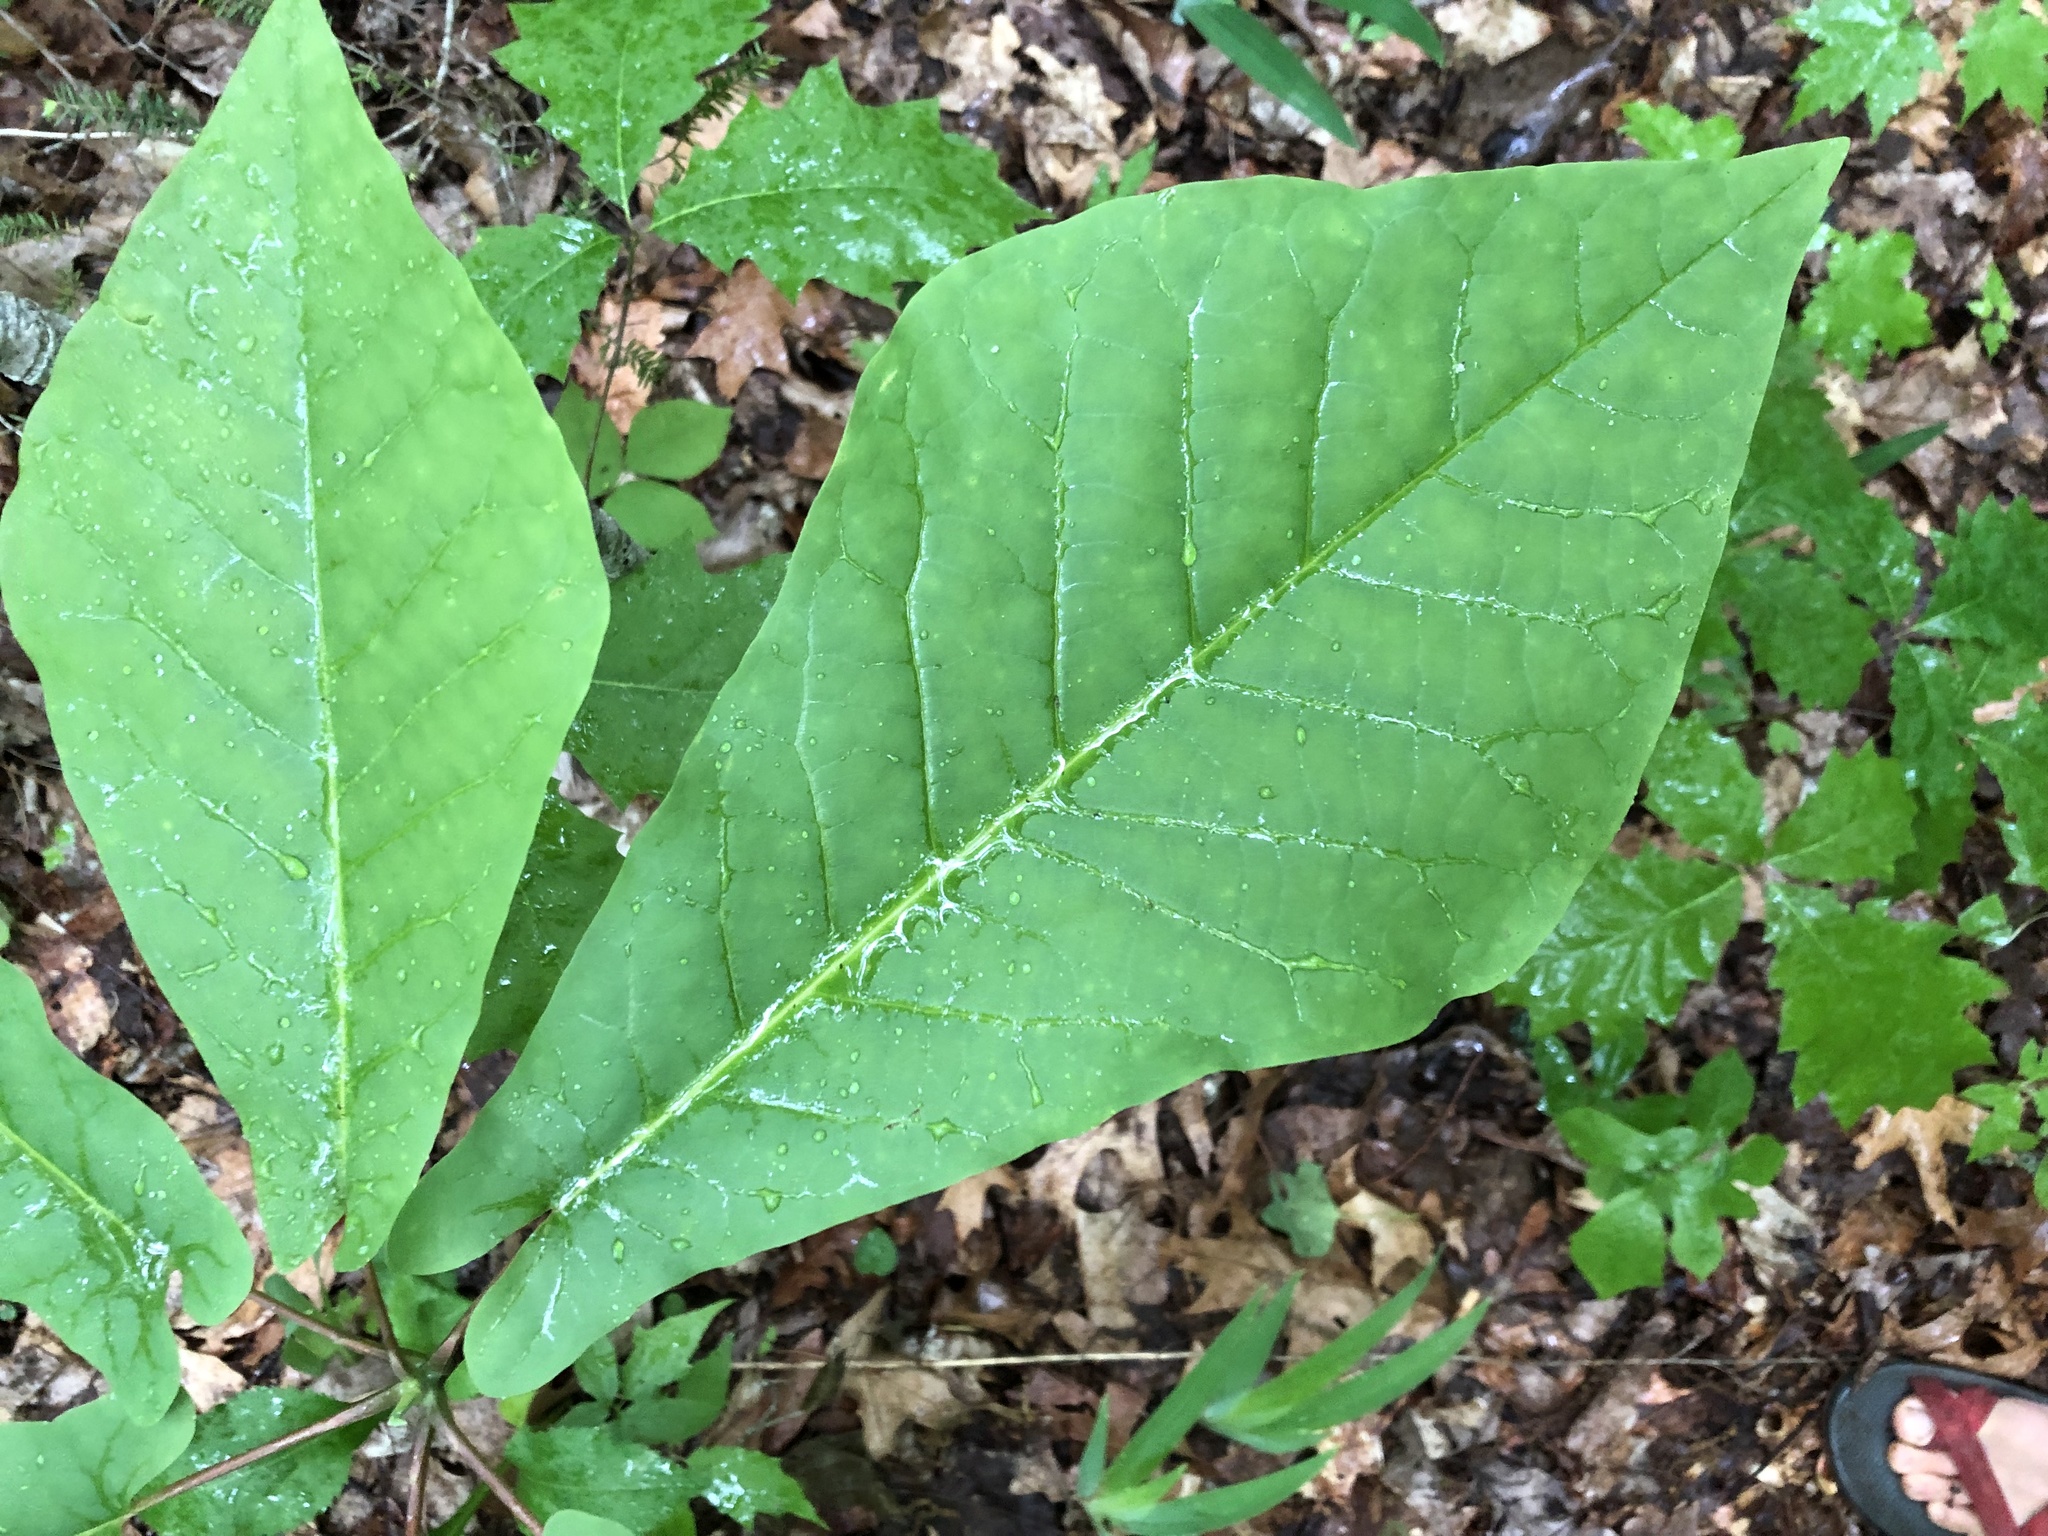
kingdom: Plantae
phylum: Tracheophyta
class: Magnoliopsida
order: Magnoliales
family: Magnoliaceae
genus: Magnolia
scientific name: Magnolia fraseri
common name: Fraser's magnolia
